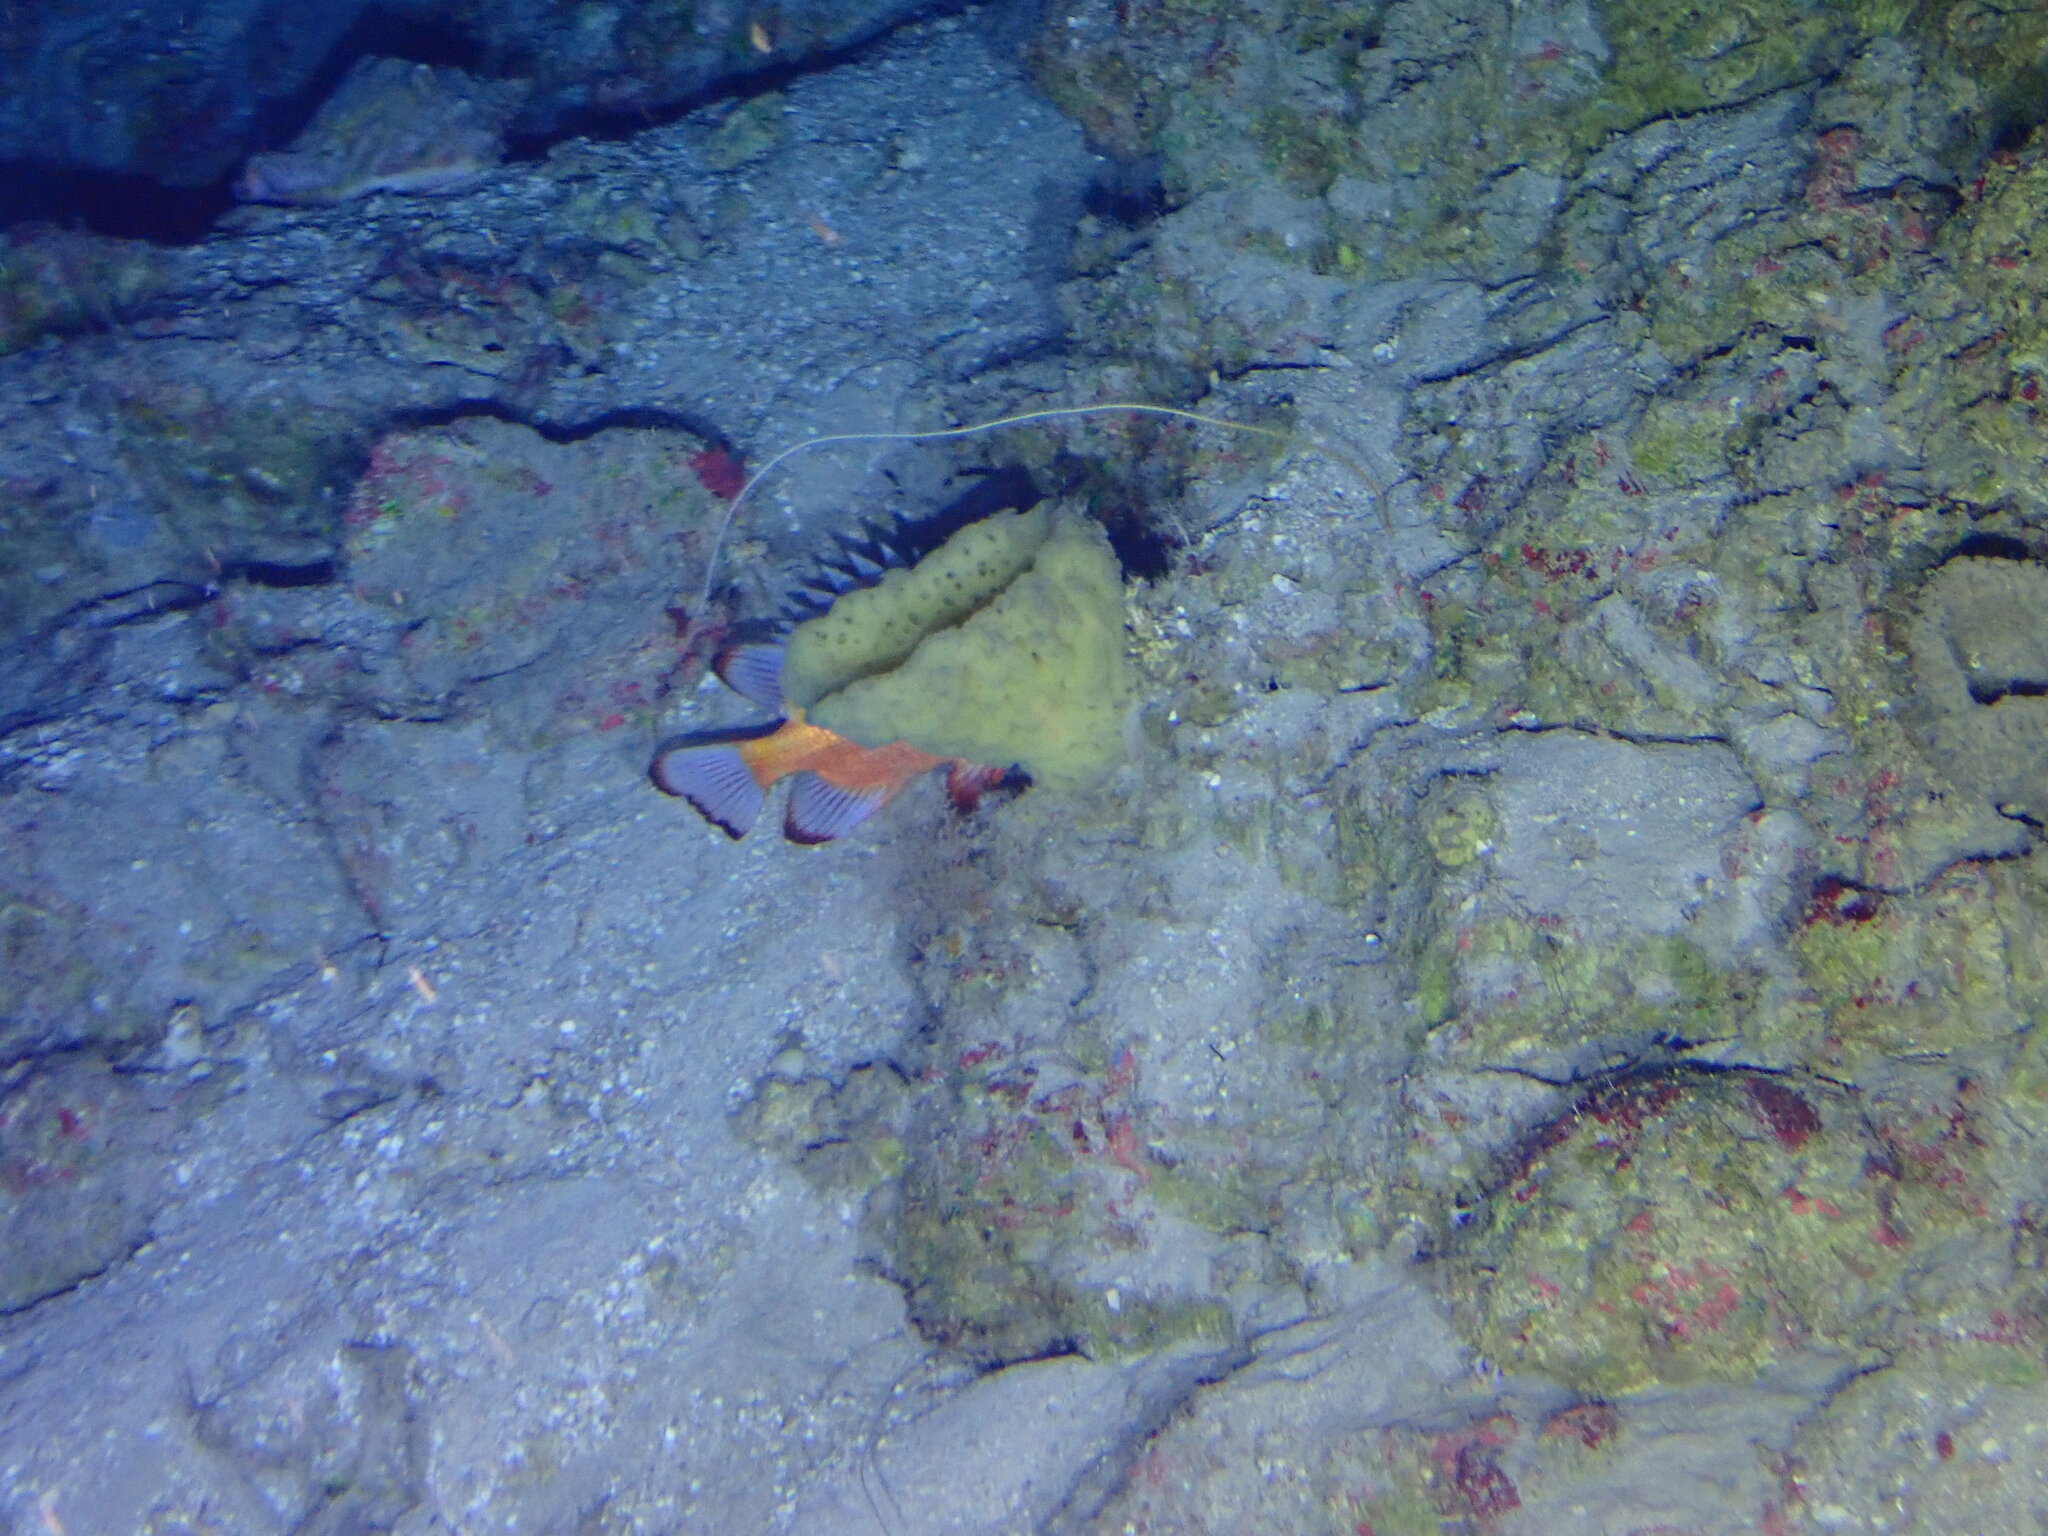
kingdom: Animalia
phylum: Chordata
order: Perciformes
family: Priacanthidae
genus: Pristigenys
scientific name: Pristigenys alta
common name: Short bigeye
